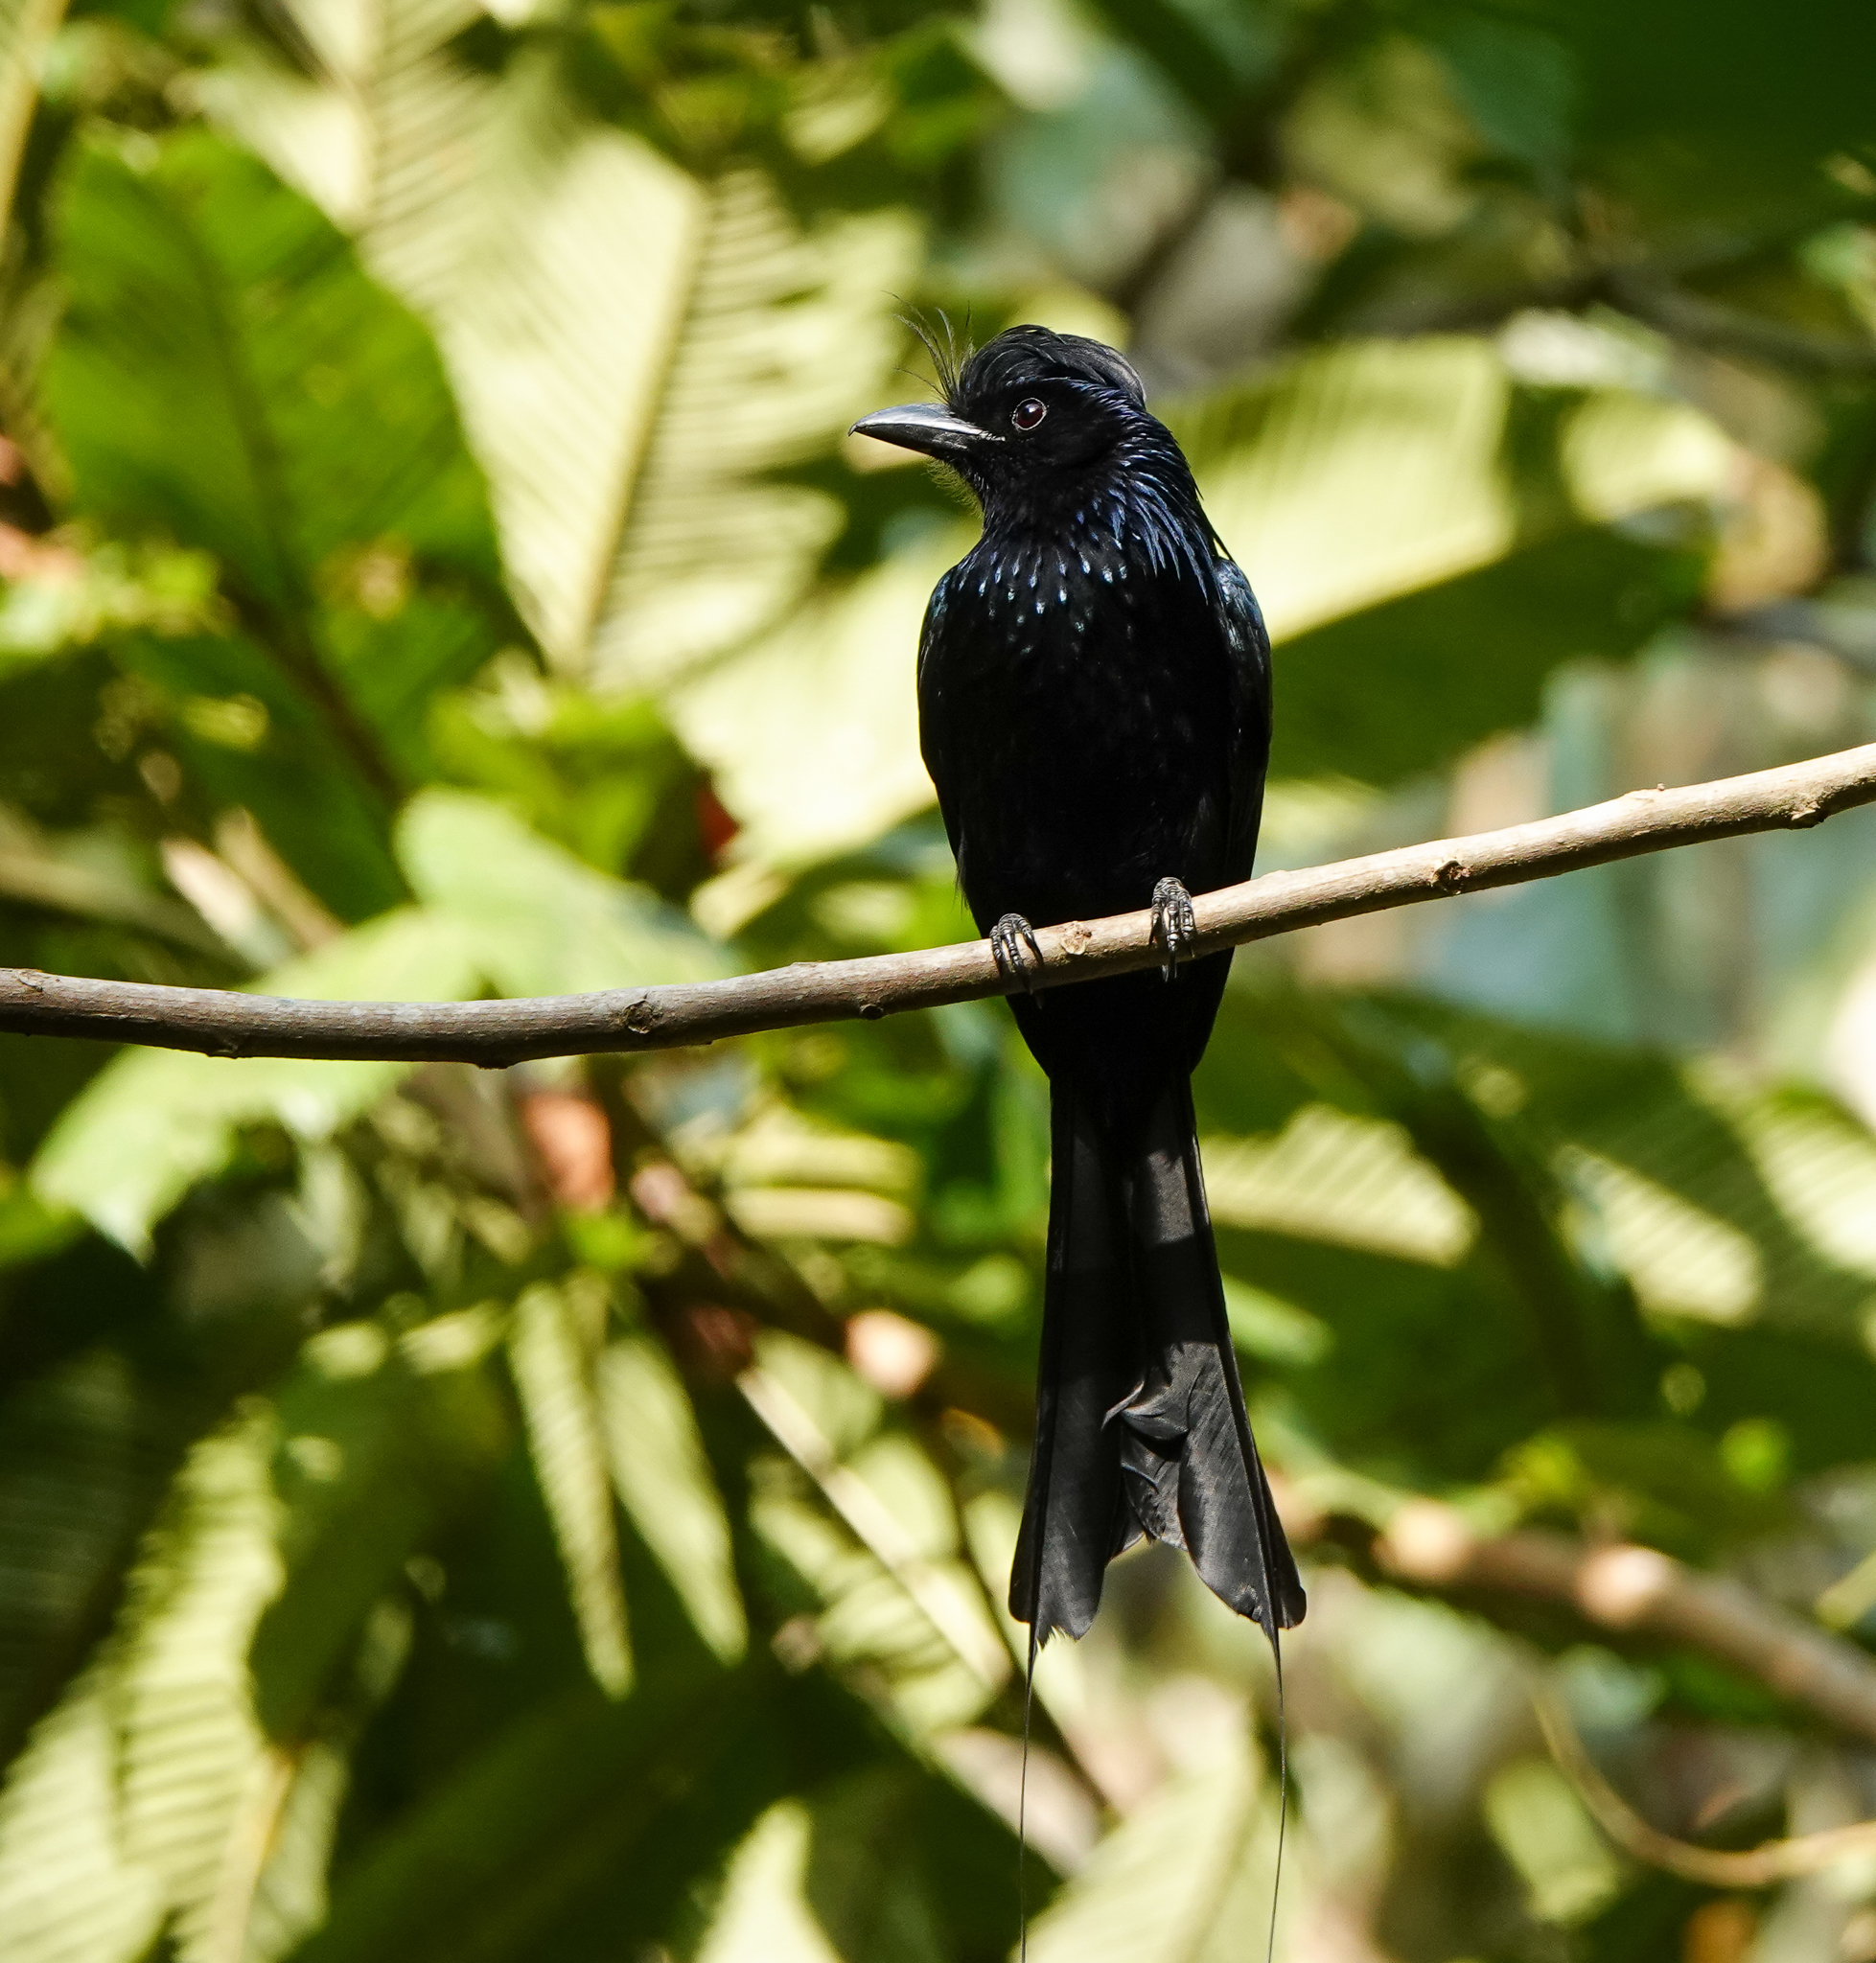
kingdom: Animalia
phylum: Chordata
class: Aves
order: Passeriformes
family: Dicruridae
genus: Dicrurus
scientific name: Dicrurus paradiseus
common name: Greater racket-tailed drongo
